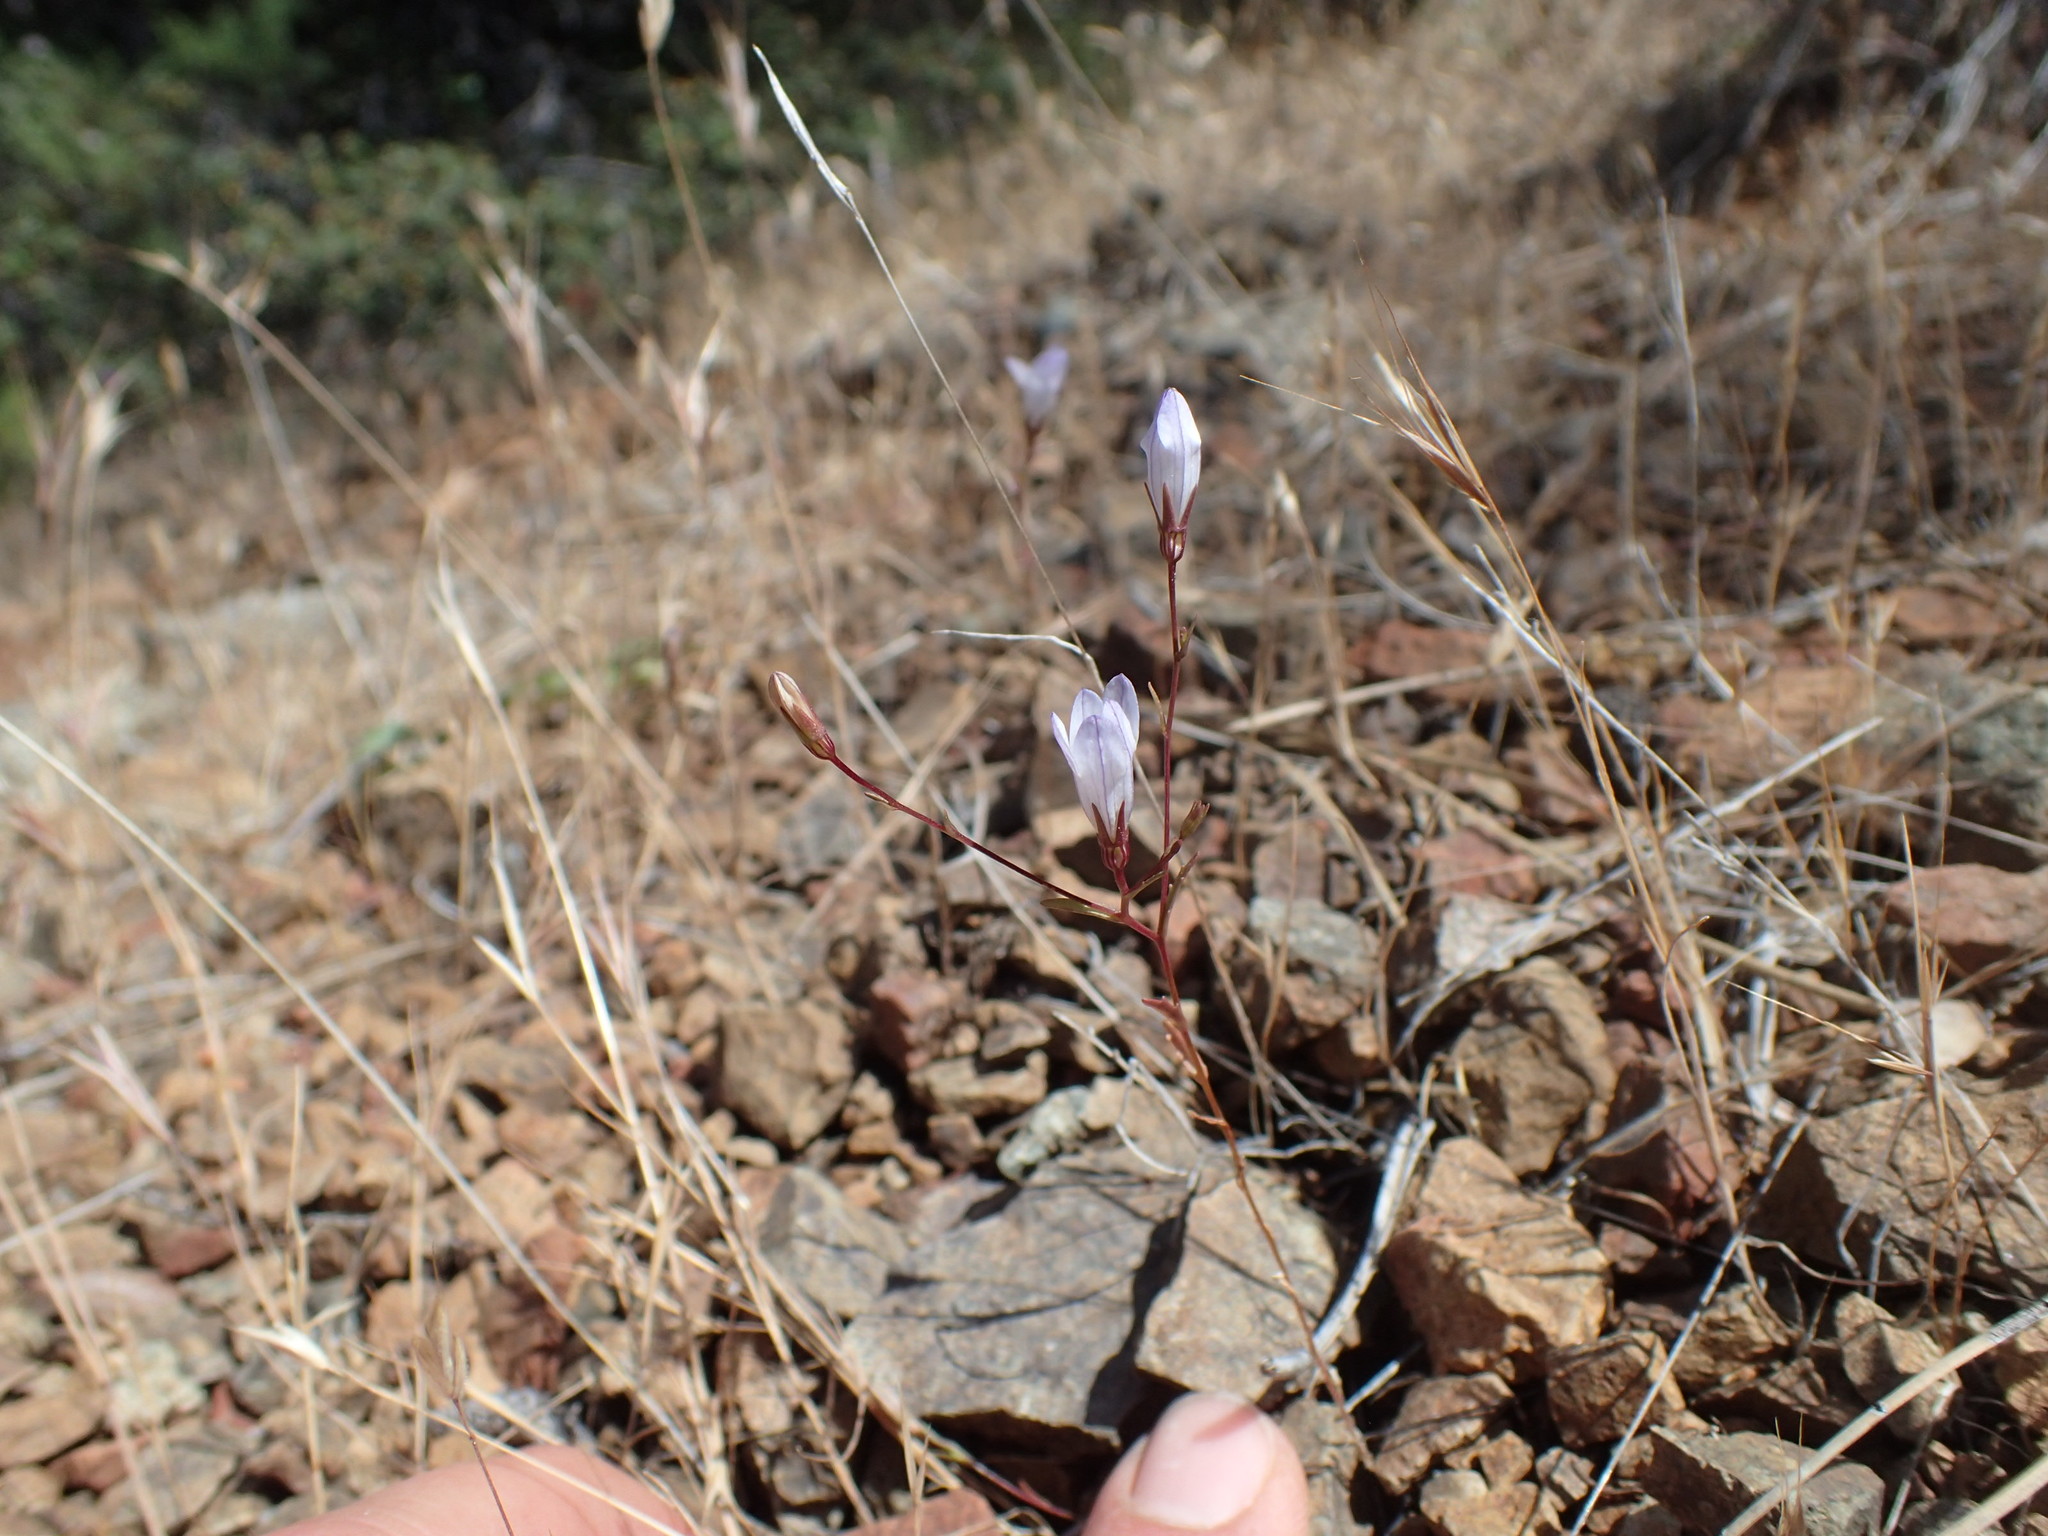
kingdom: Plantae
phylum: Tracheophyta
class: Magnoliopsida
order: Asterales
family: Campanulaceae
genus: Ravenella
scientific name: Ravenella exigua
